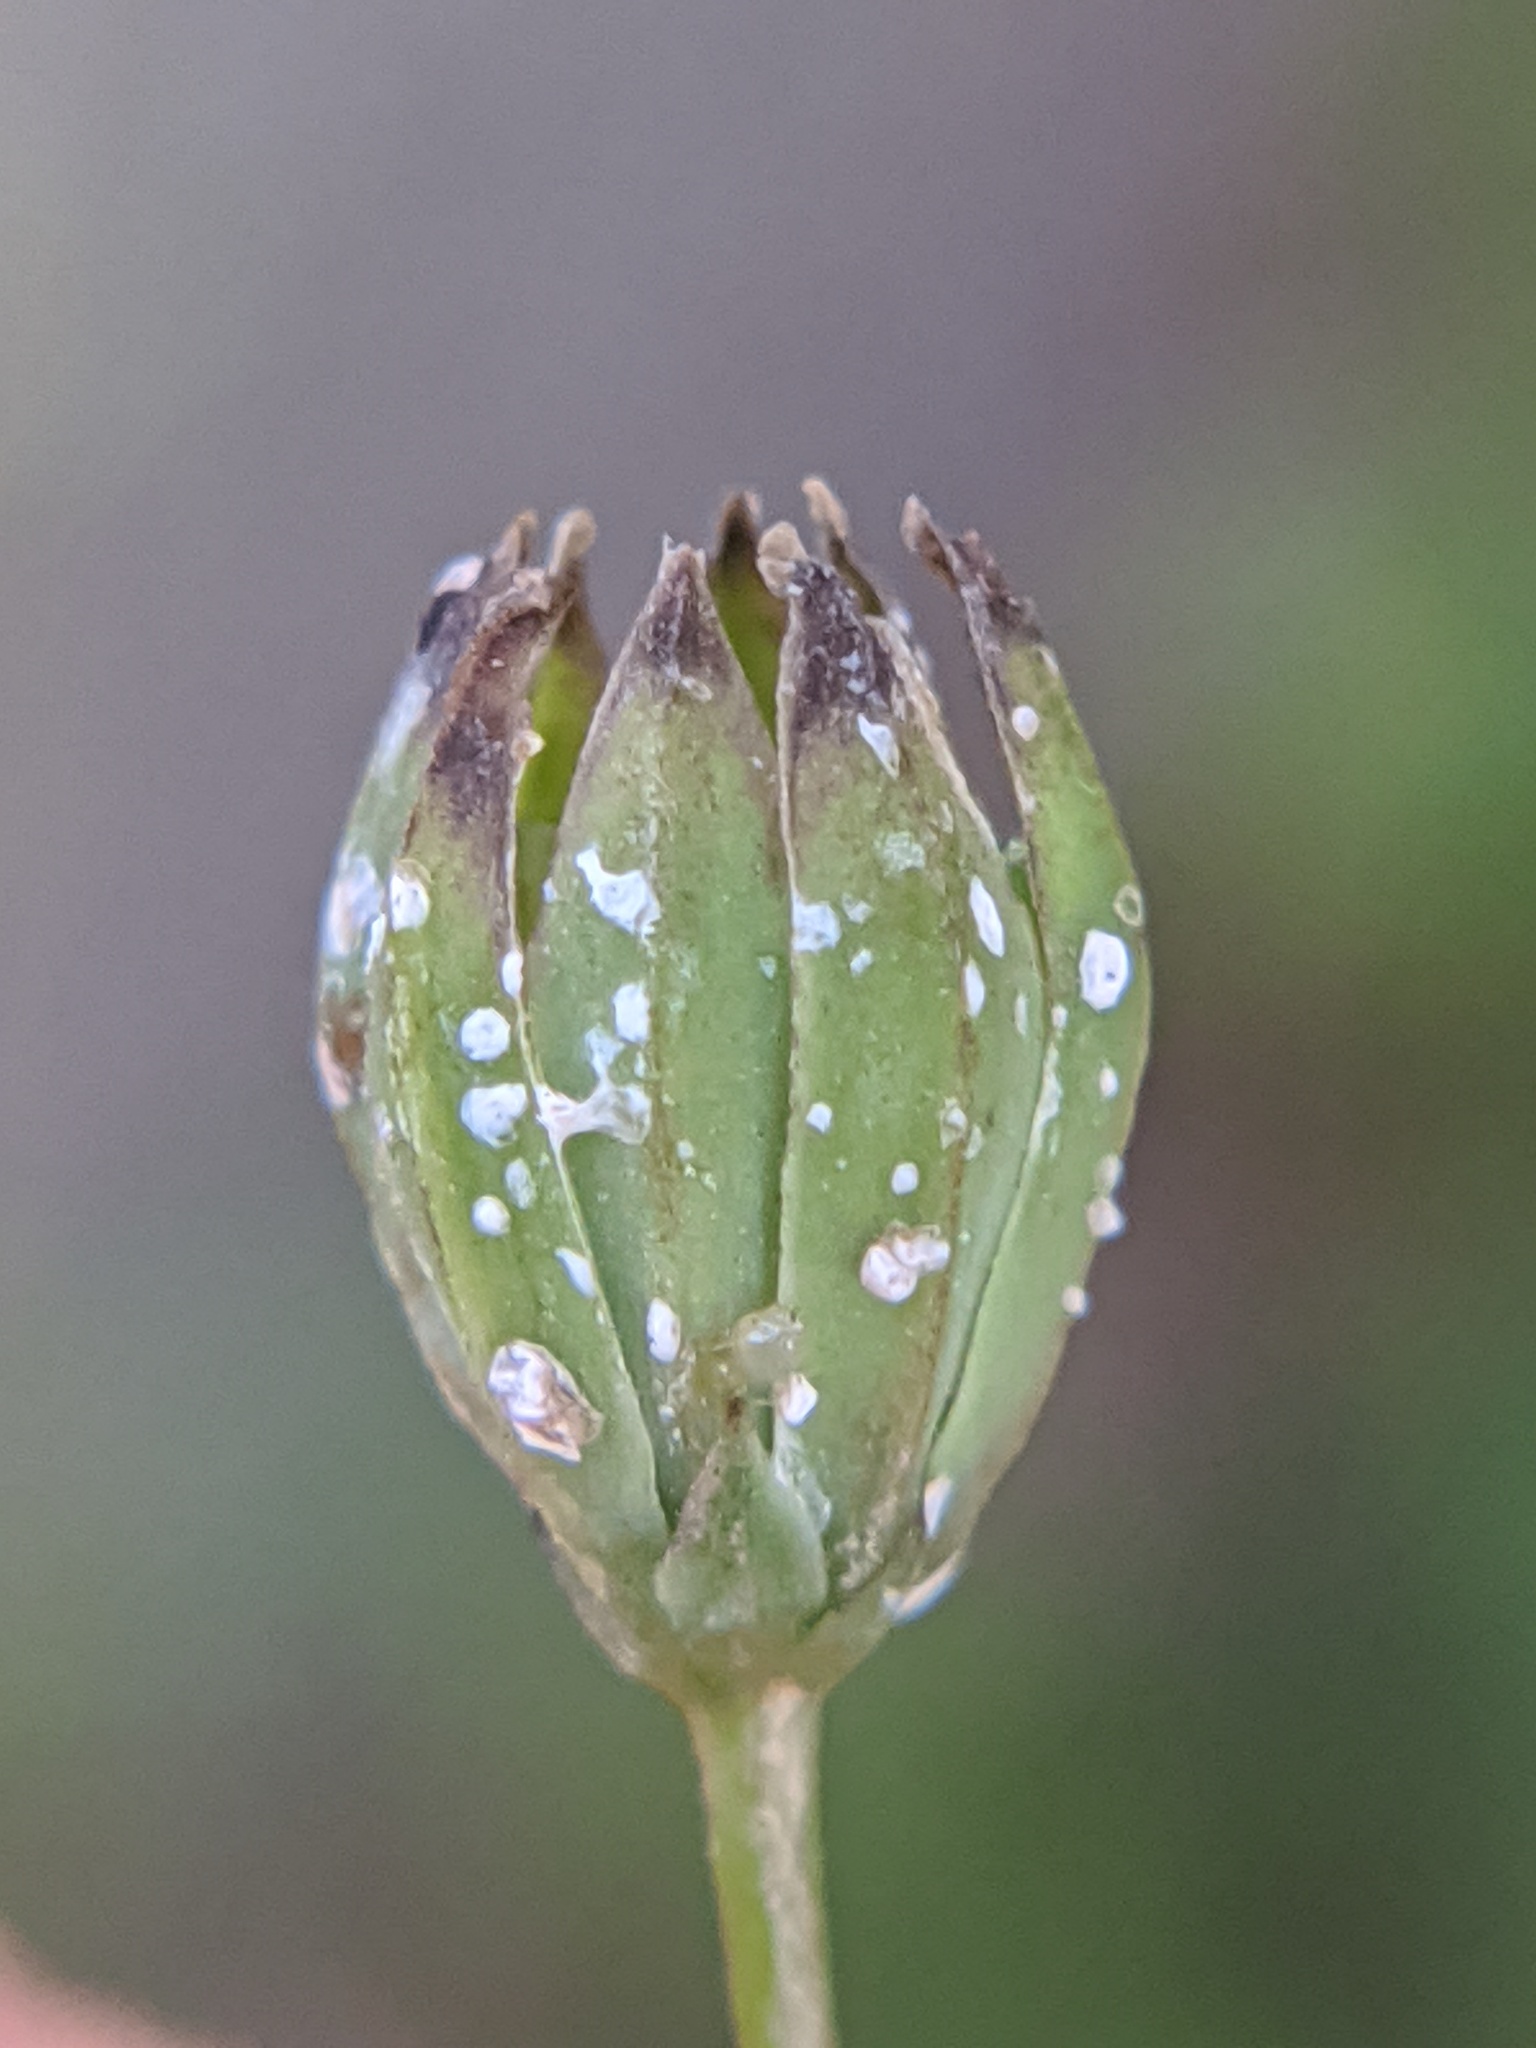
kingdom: Plantae
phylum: Tracheophyta
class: Magnoliopsida
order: Asterales
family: Asteraceae
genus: Lapsana
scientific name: Lapsana communis
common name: Nipplewort
